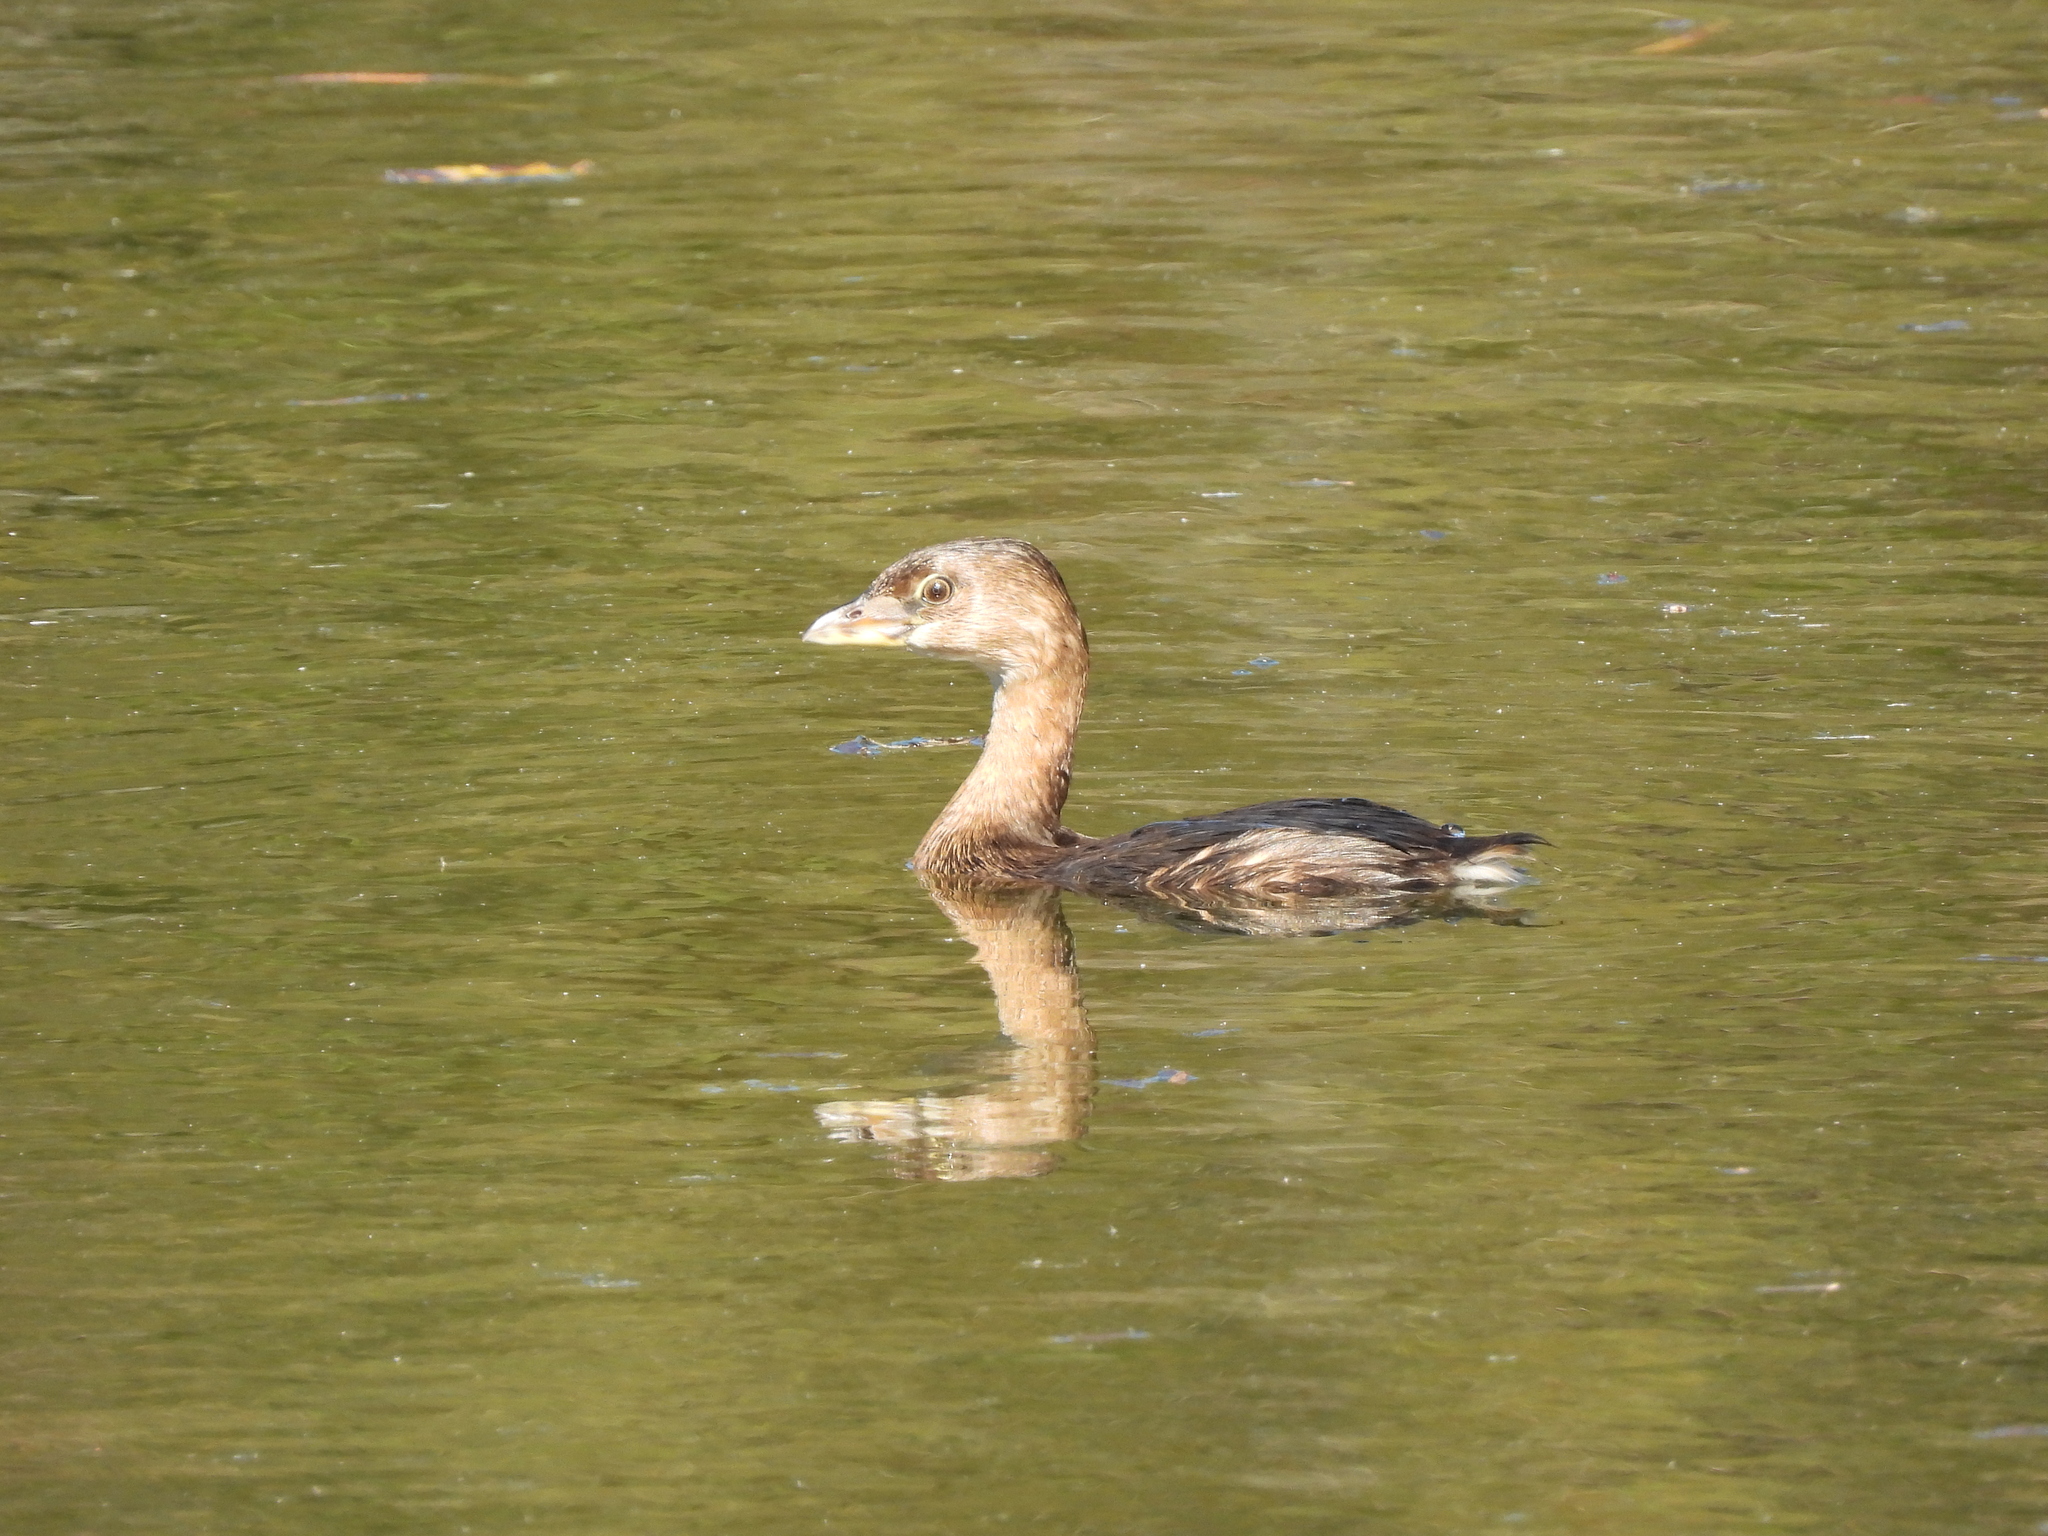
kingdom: Animalia
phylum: Chordata
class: Aves
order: Podicipediformes
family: Podicipedidae
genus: Podilymbus
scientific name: Podilymbus podiceps
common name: Pied-billed grebe
